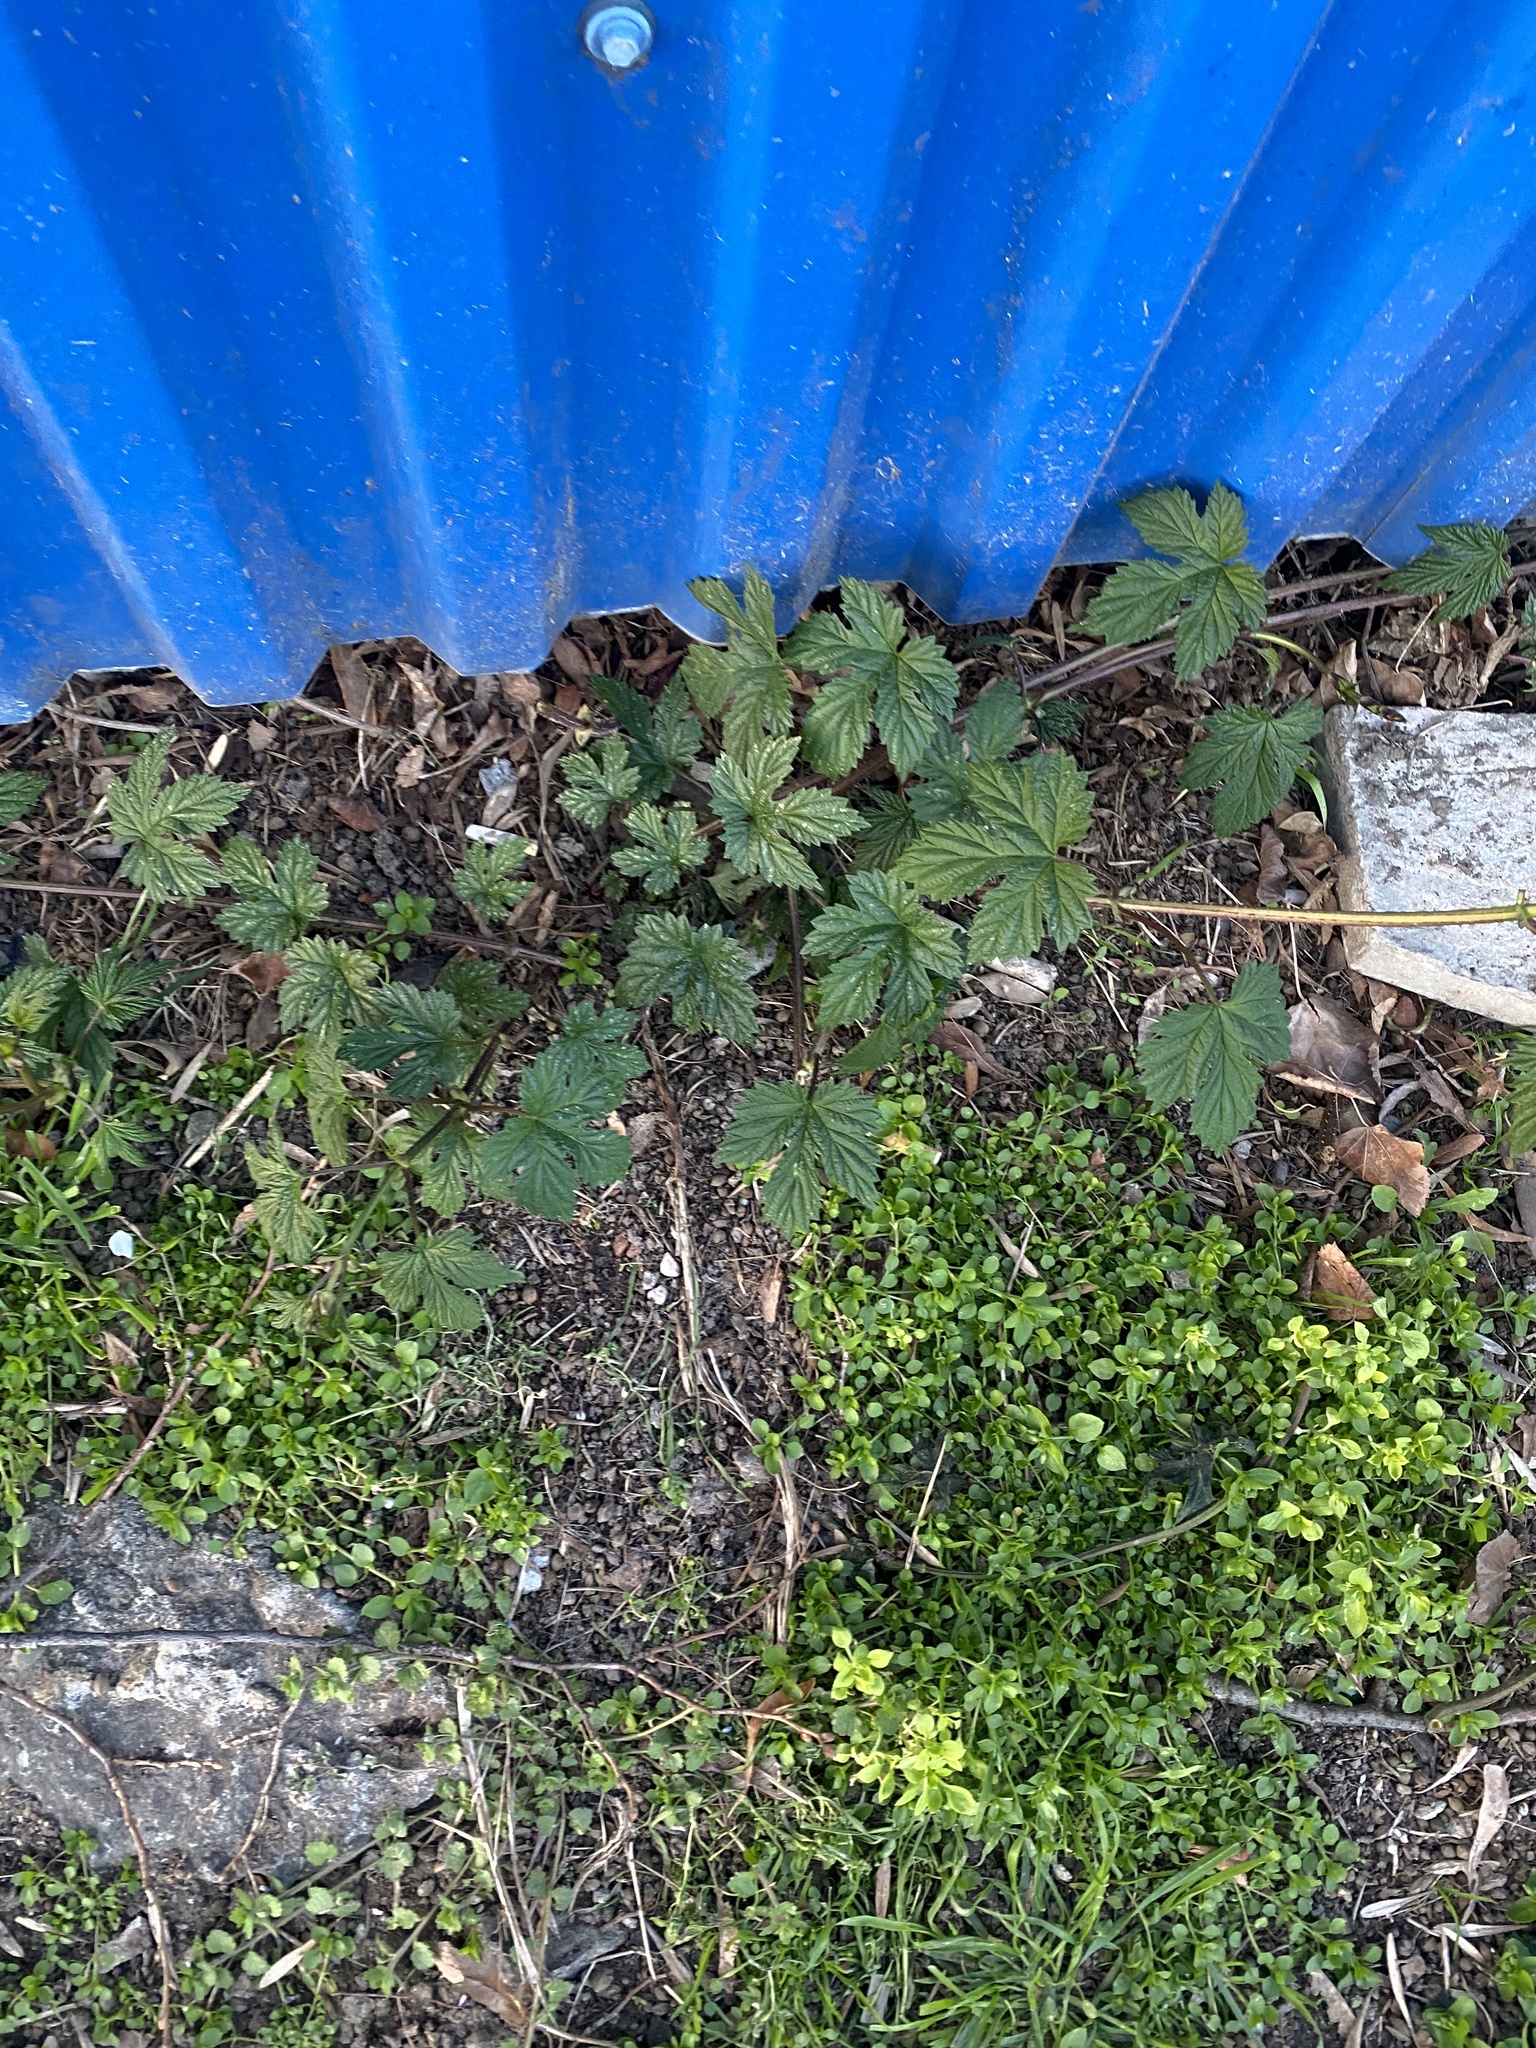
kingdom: Plantae
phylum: Tracheophyta
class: Magnoliopsida
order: Rosales
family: Cannabaceae
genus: Humulus
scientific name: Humulus lupulus
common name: Hop
